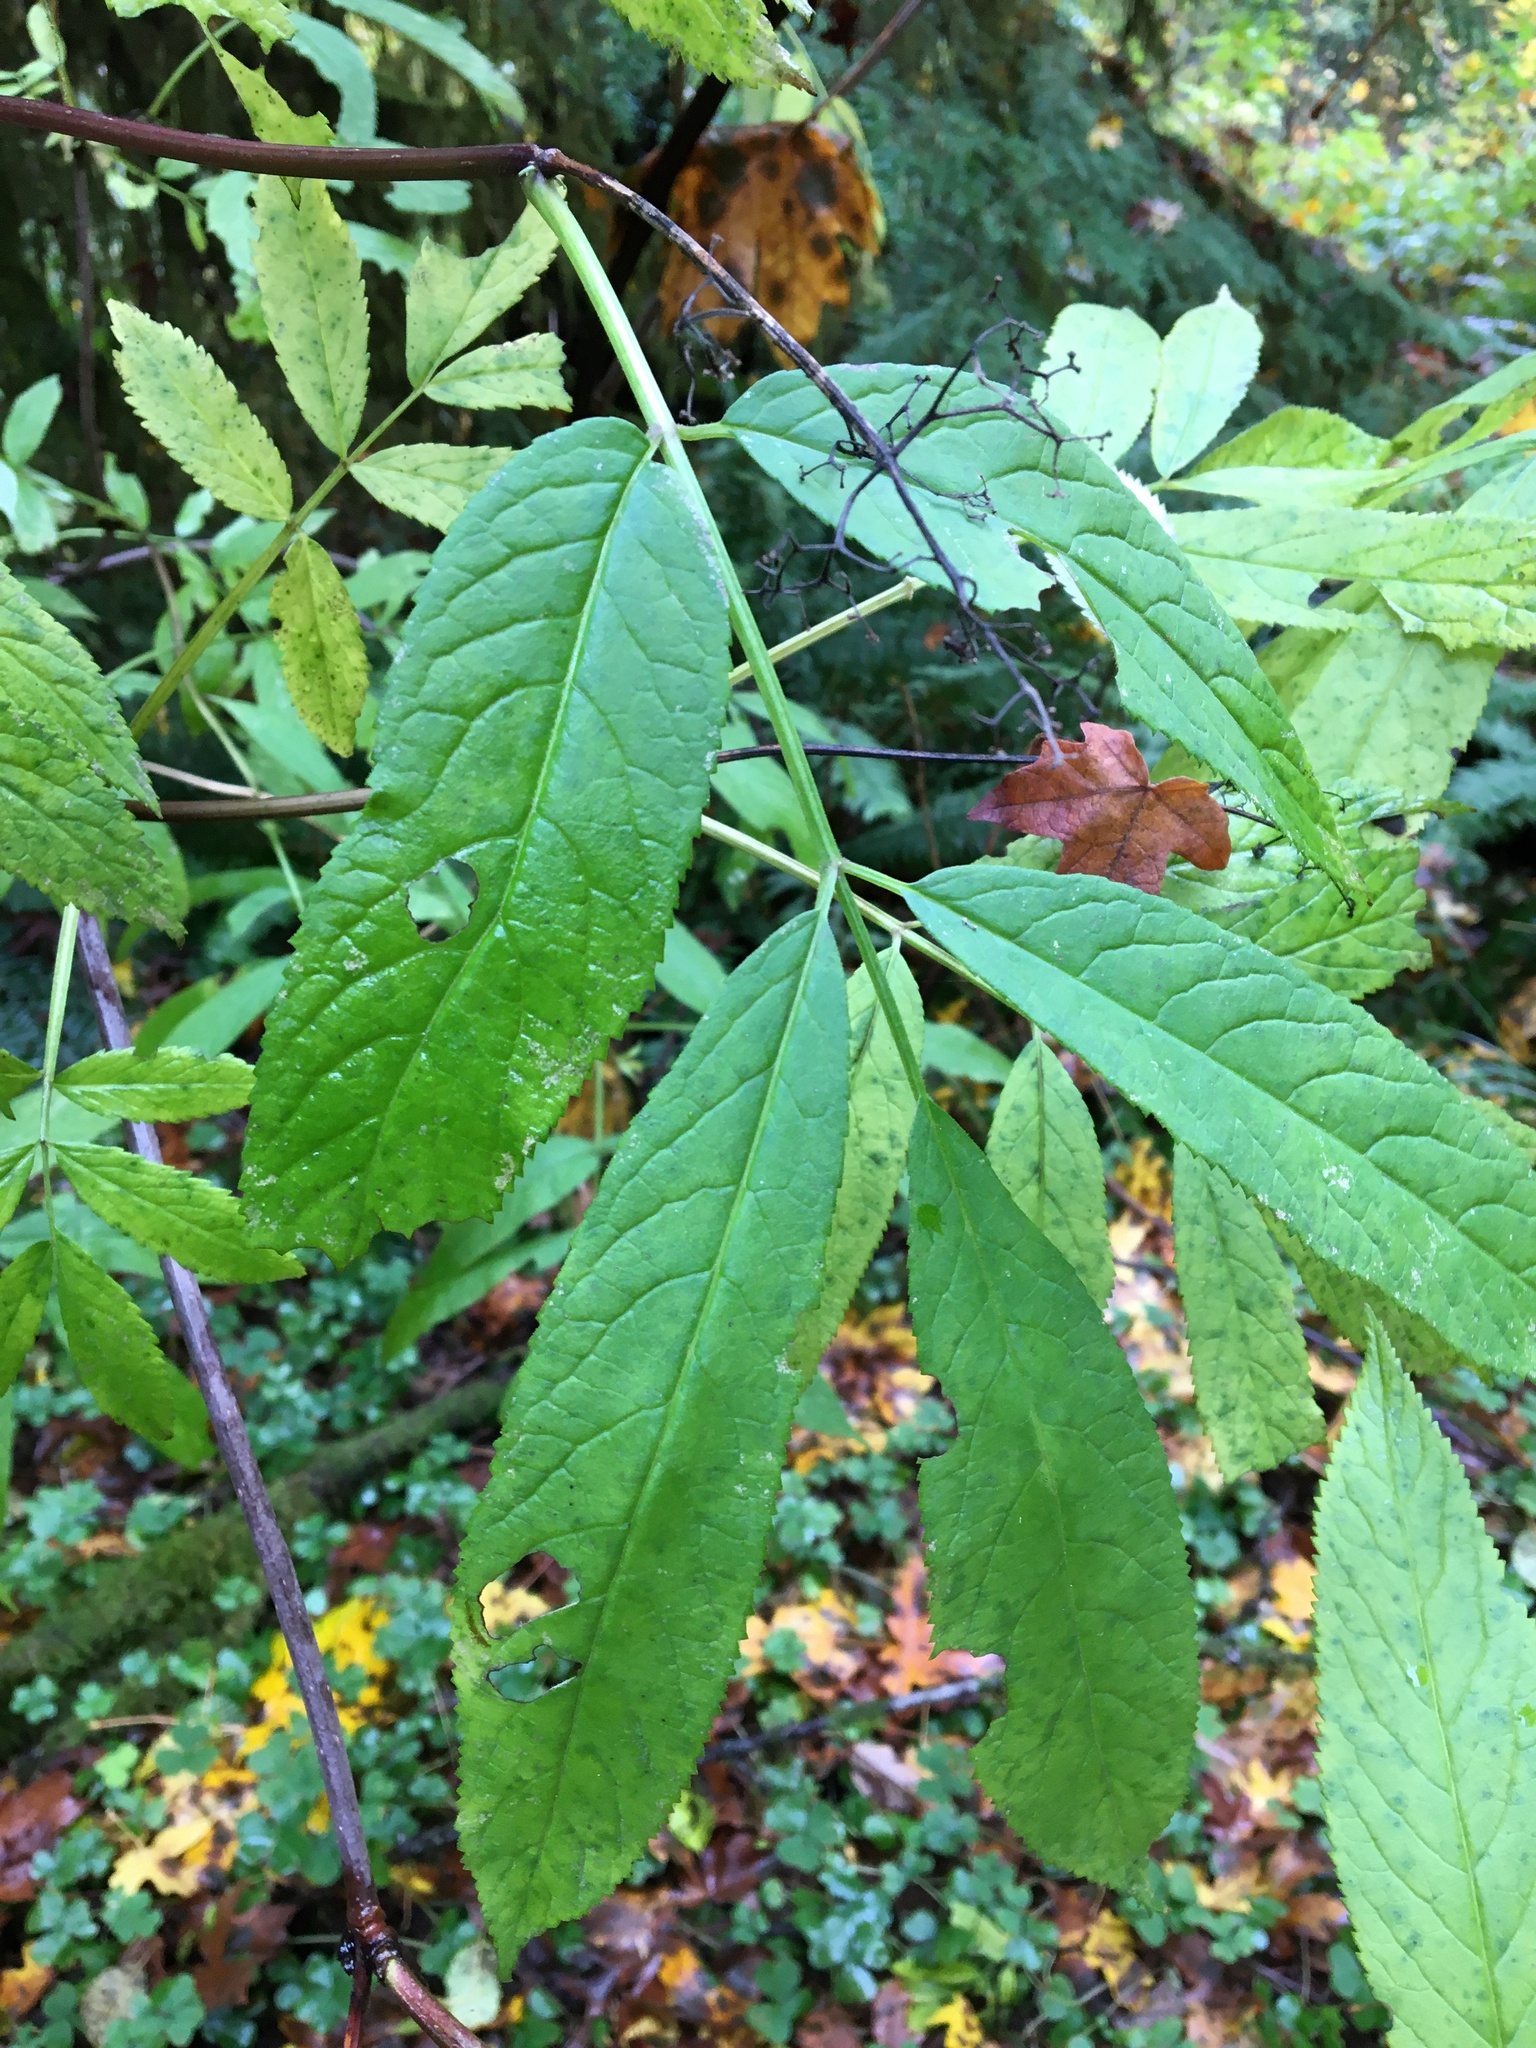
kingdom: Plantae
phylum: Tracheophyta
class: Magnoliopsida
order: Dipsacales
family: Viburnaceae
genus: Sambucus
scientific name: Sambucus racemosa
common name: Red-berried elder
